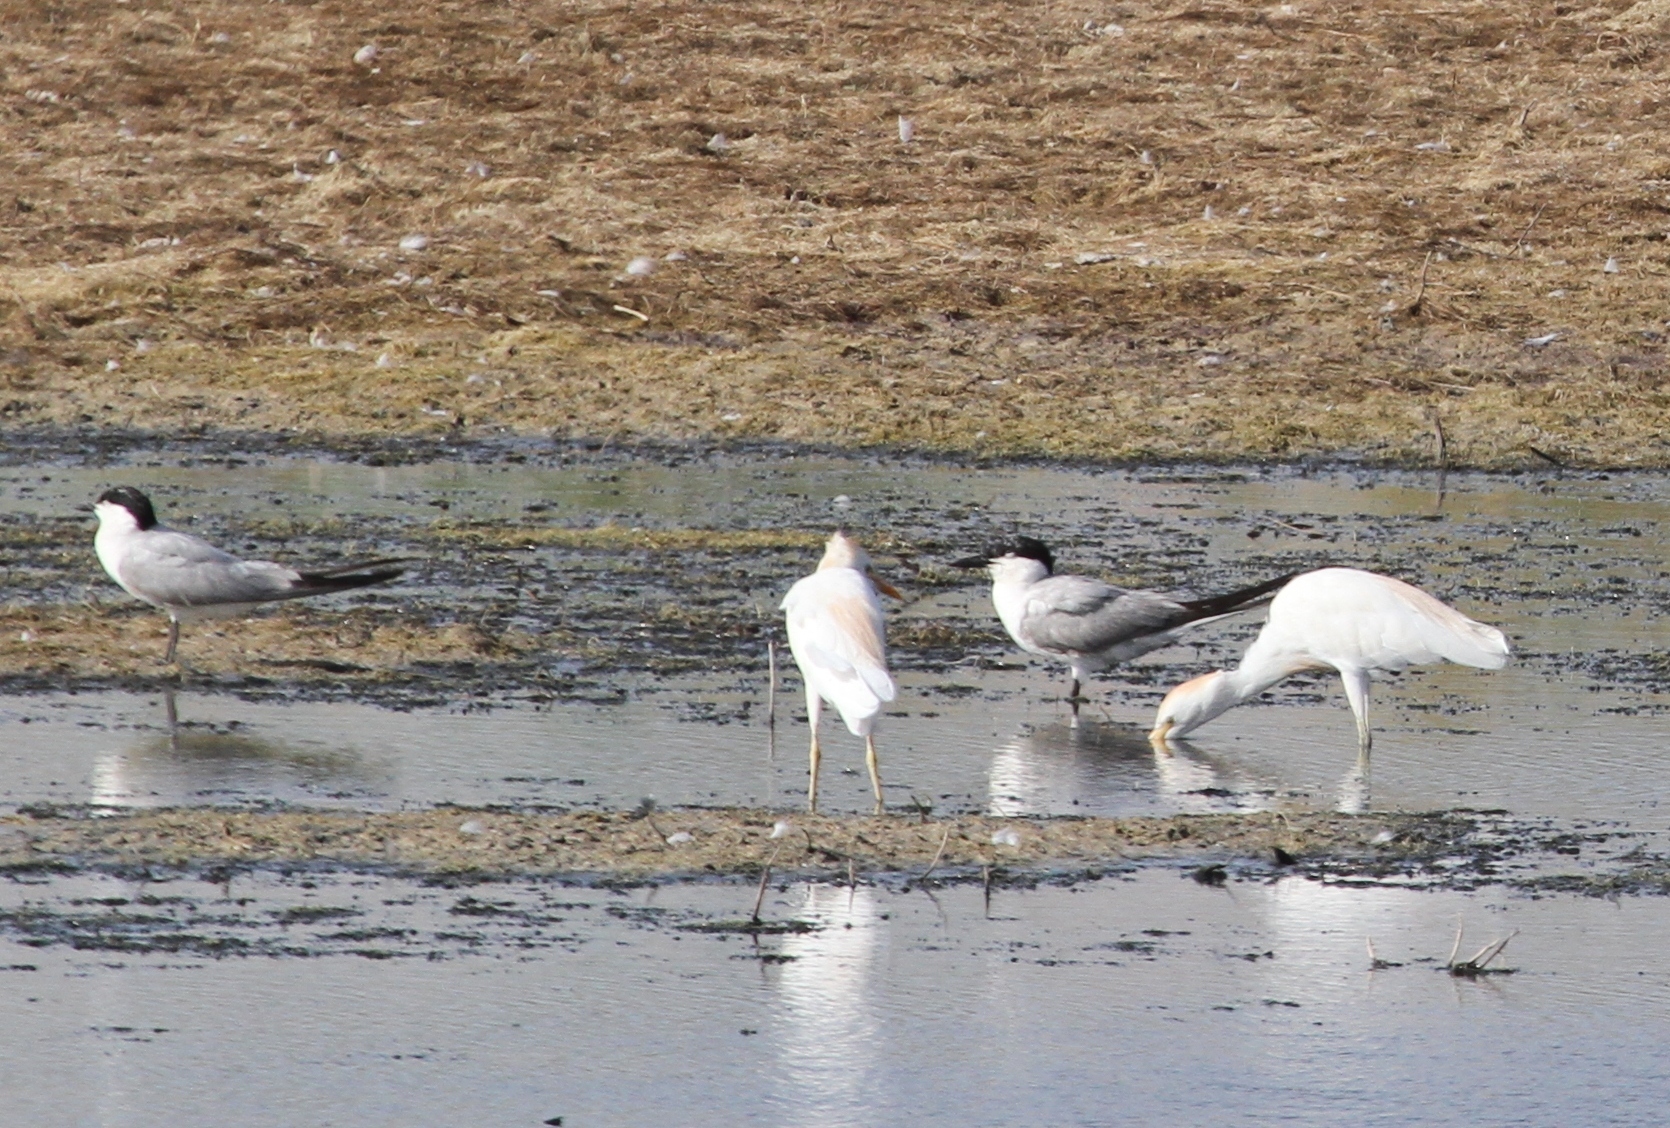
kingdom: Animalia
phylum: Chordata
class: Aves
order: Pelecaniformes
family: Ardeidae
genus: Bubulcus
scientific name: Bubulcus ibis
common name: Cattle egret
